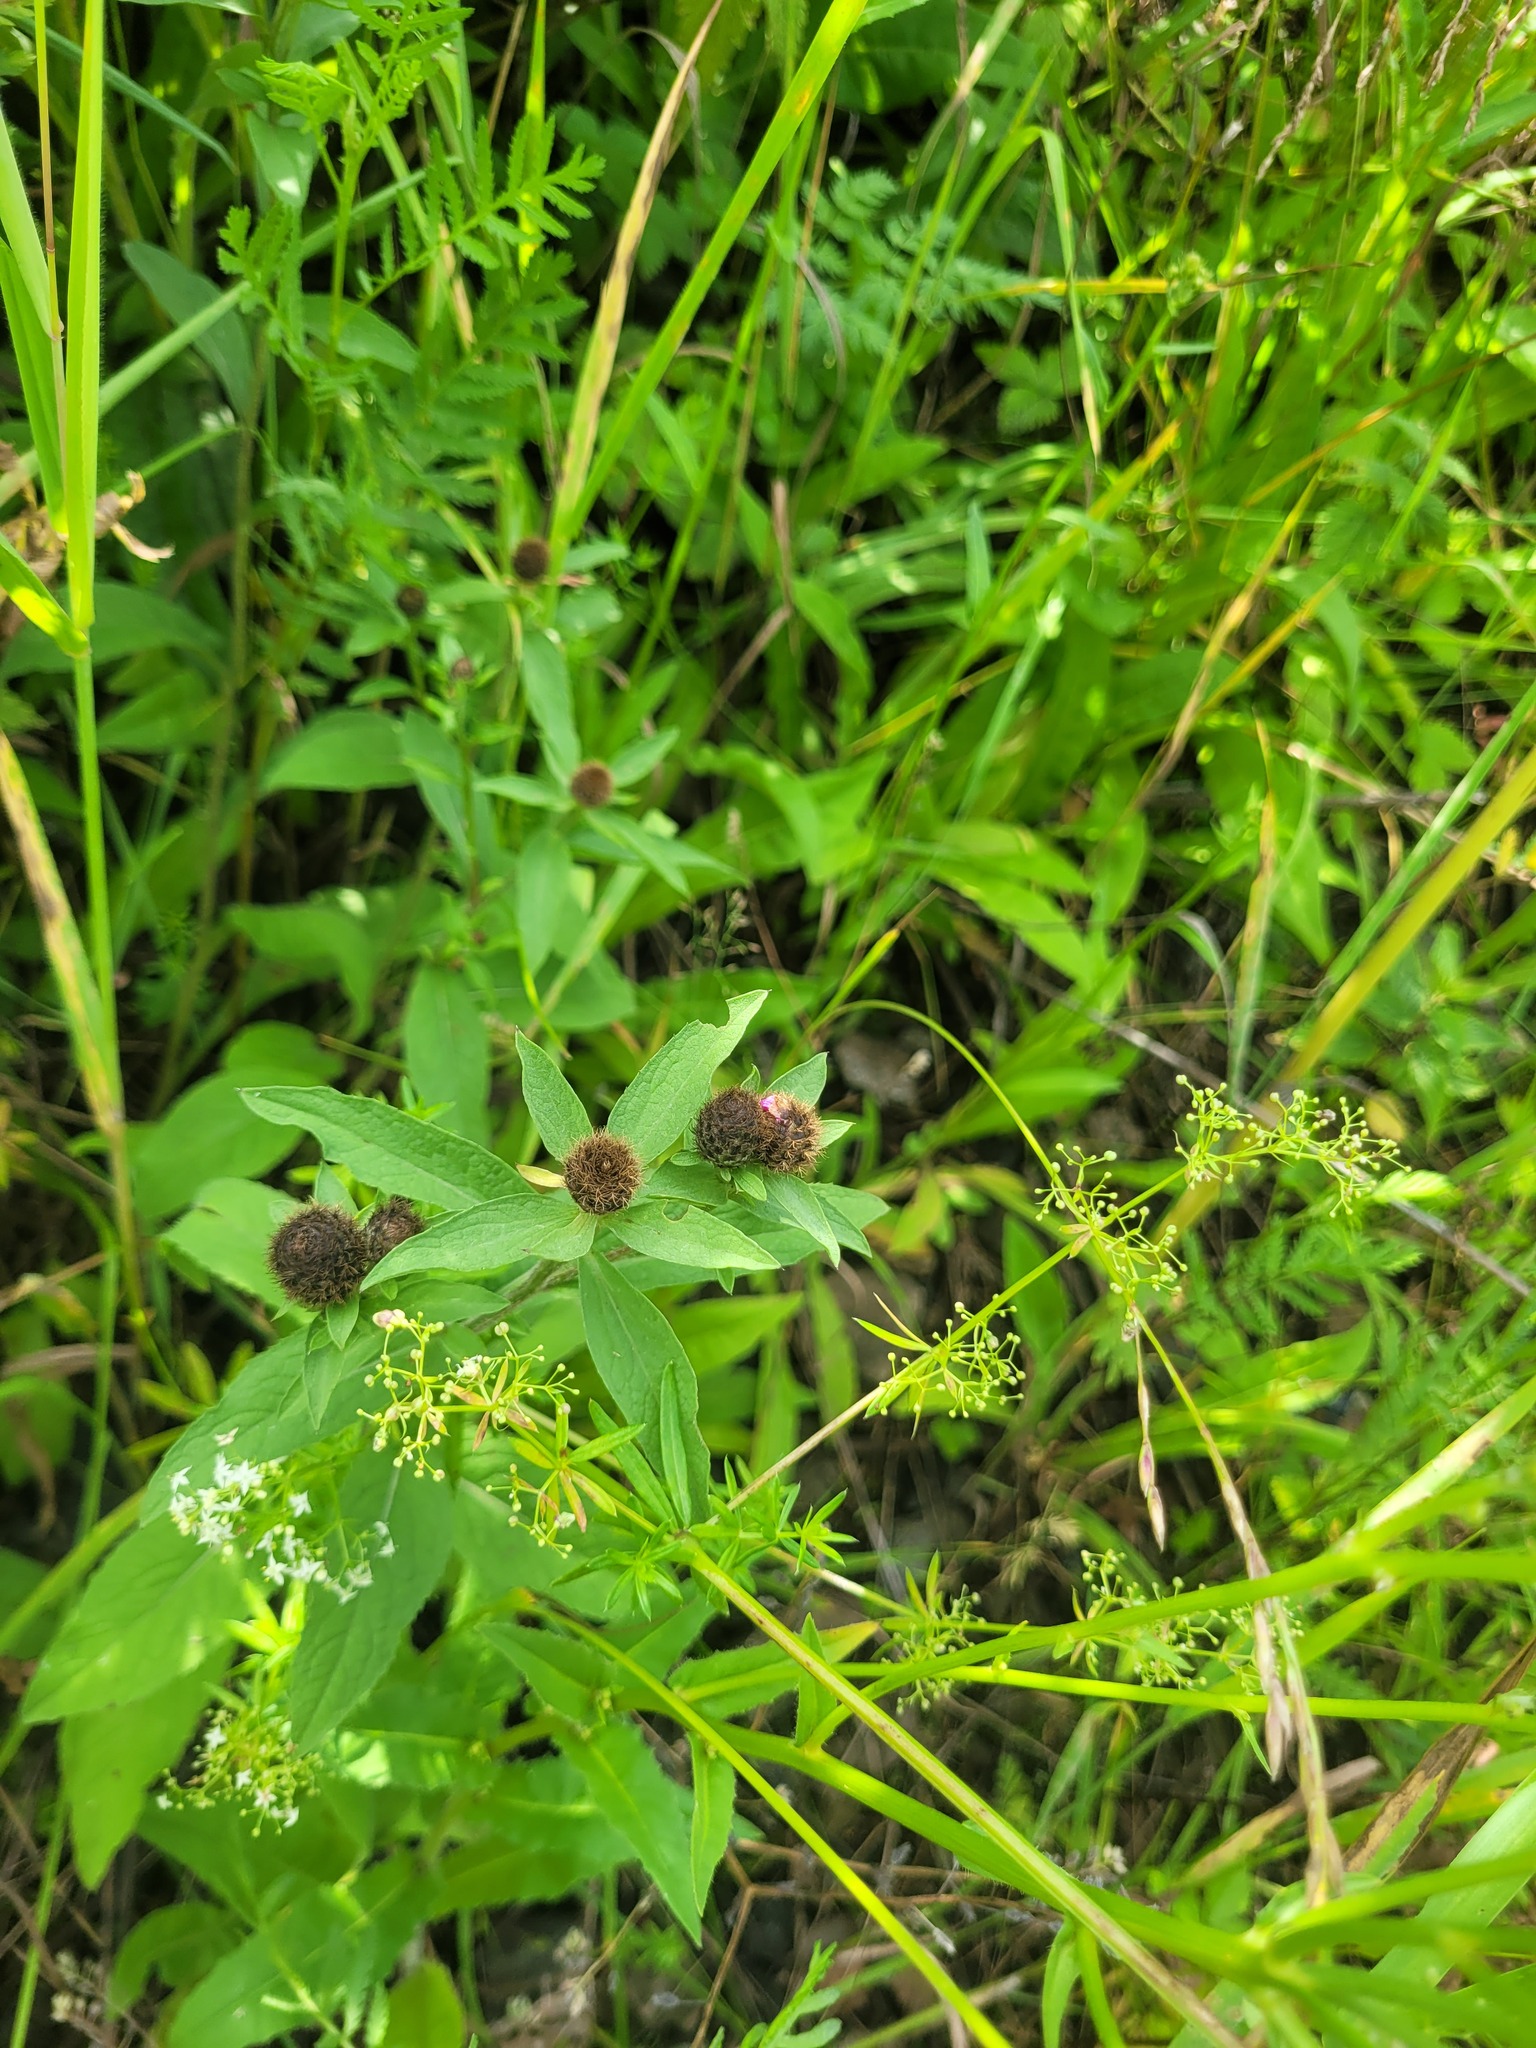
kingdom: Plantae
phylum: Tracheophyta
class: Magnoliopsida
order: Asterales
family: Asteraceae
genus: Centaurea
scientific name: Centaurea pseudophrygia
